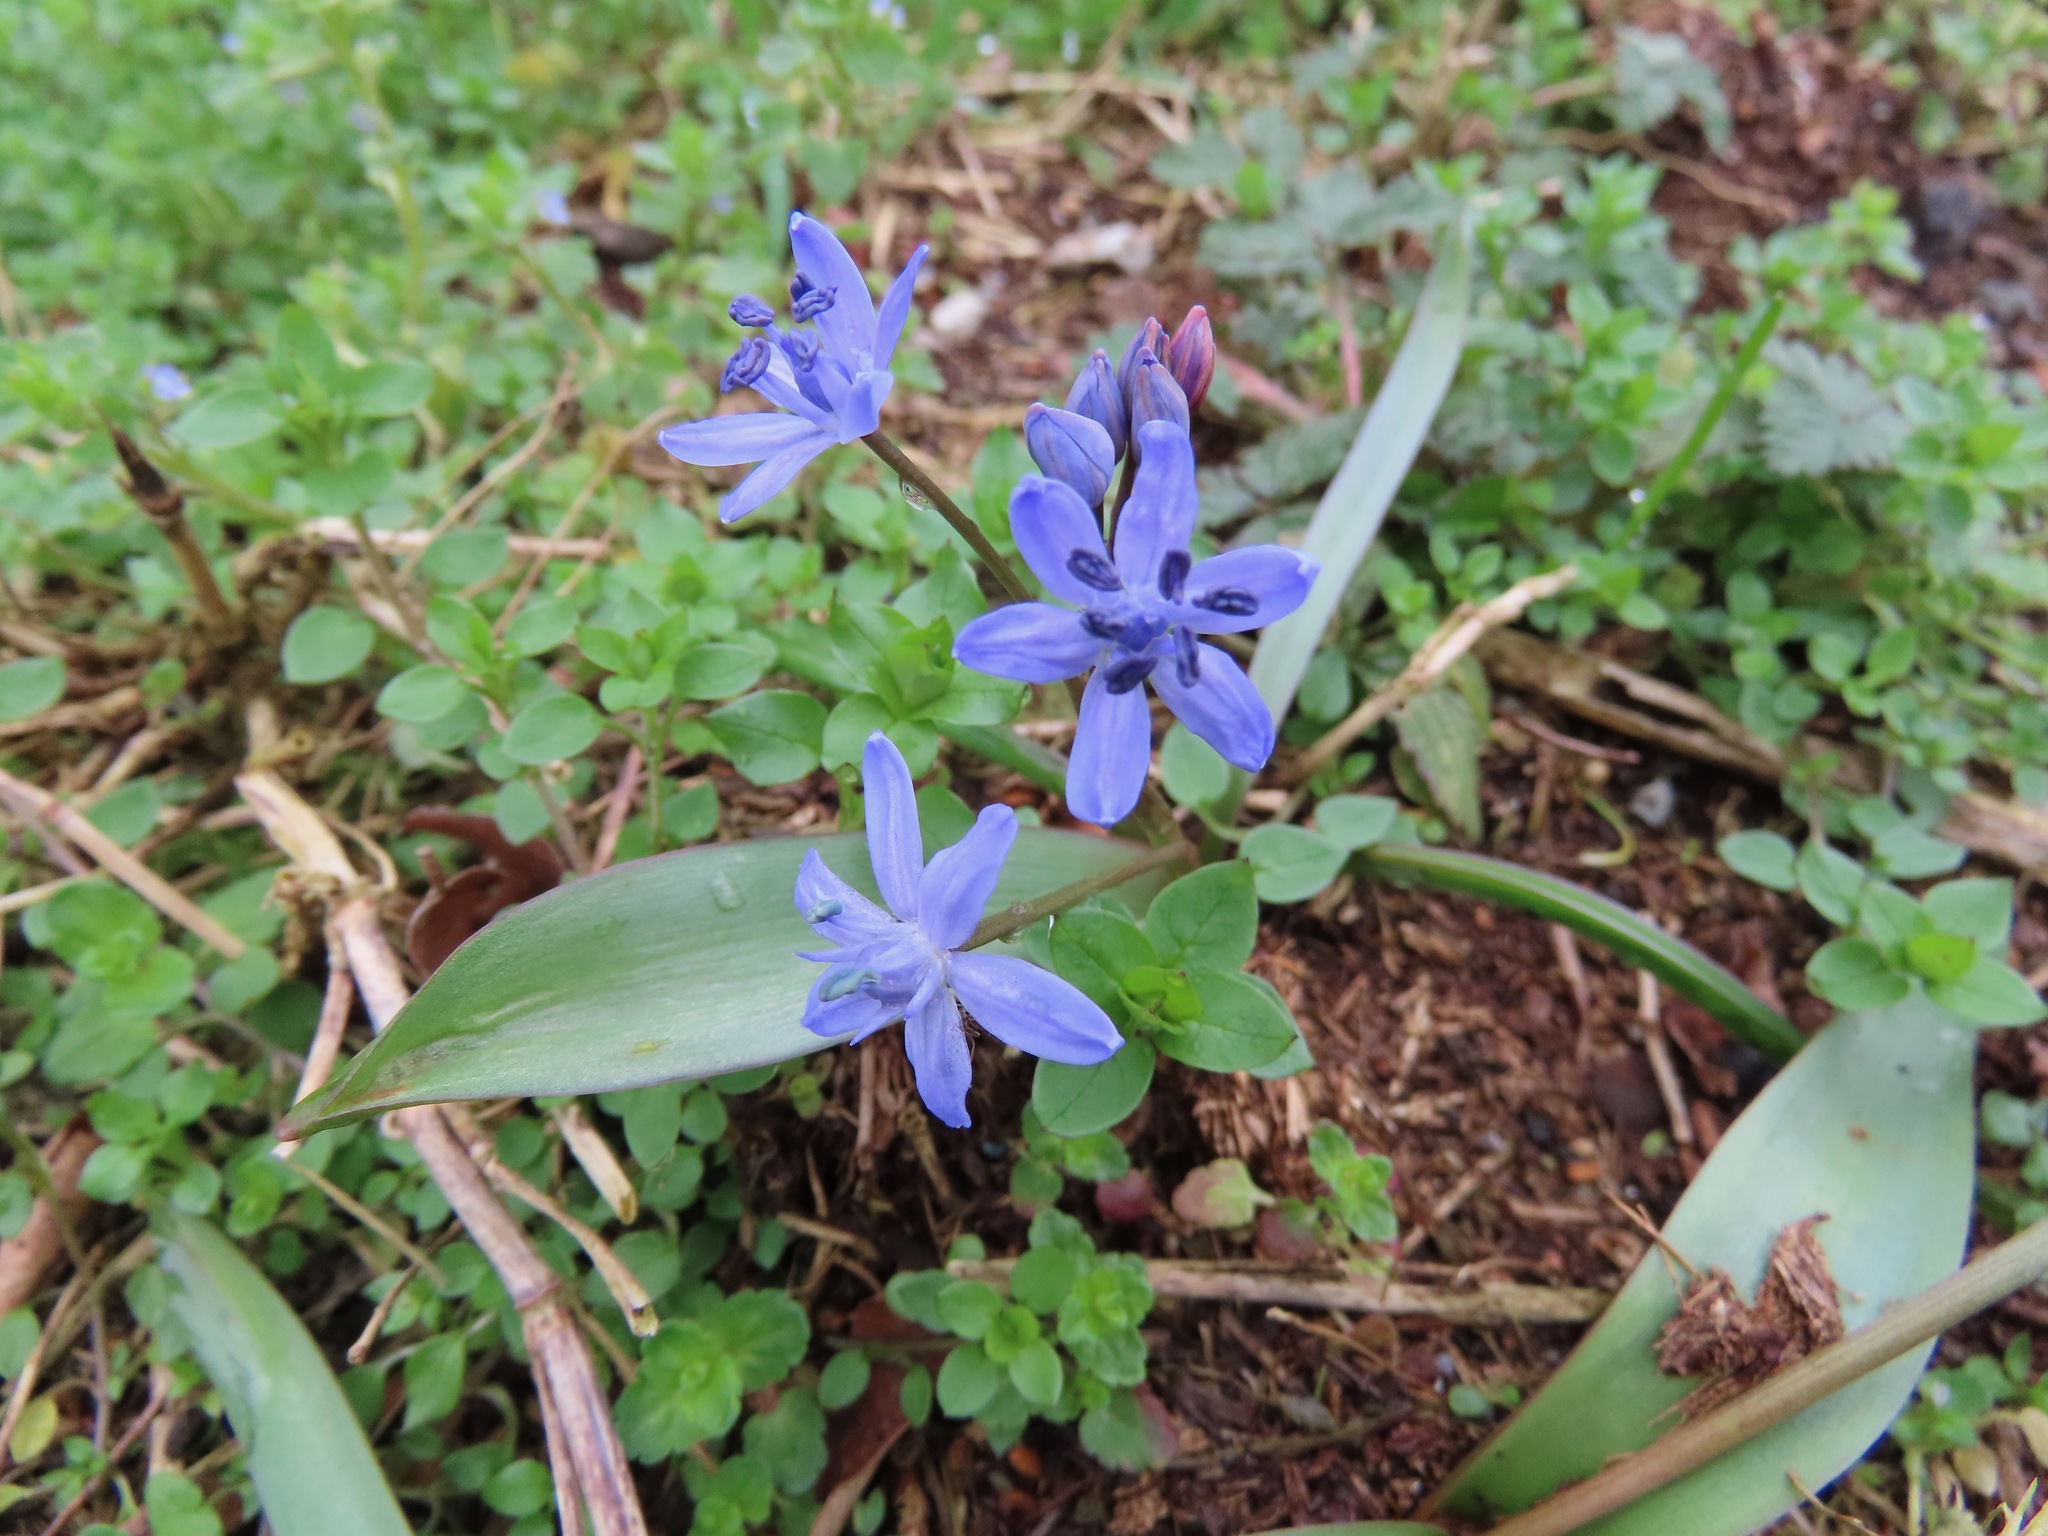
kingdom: Plantae
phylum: Tracheophyta
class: Liliopsida
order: Asparagales
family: Asparagaceae
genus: Scilla
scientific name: Scilla bifolia
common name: Alpine squill
